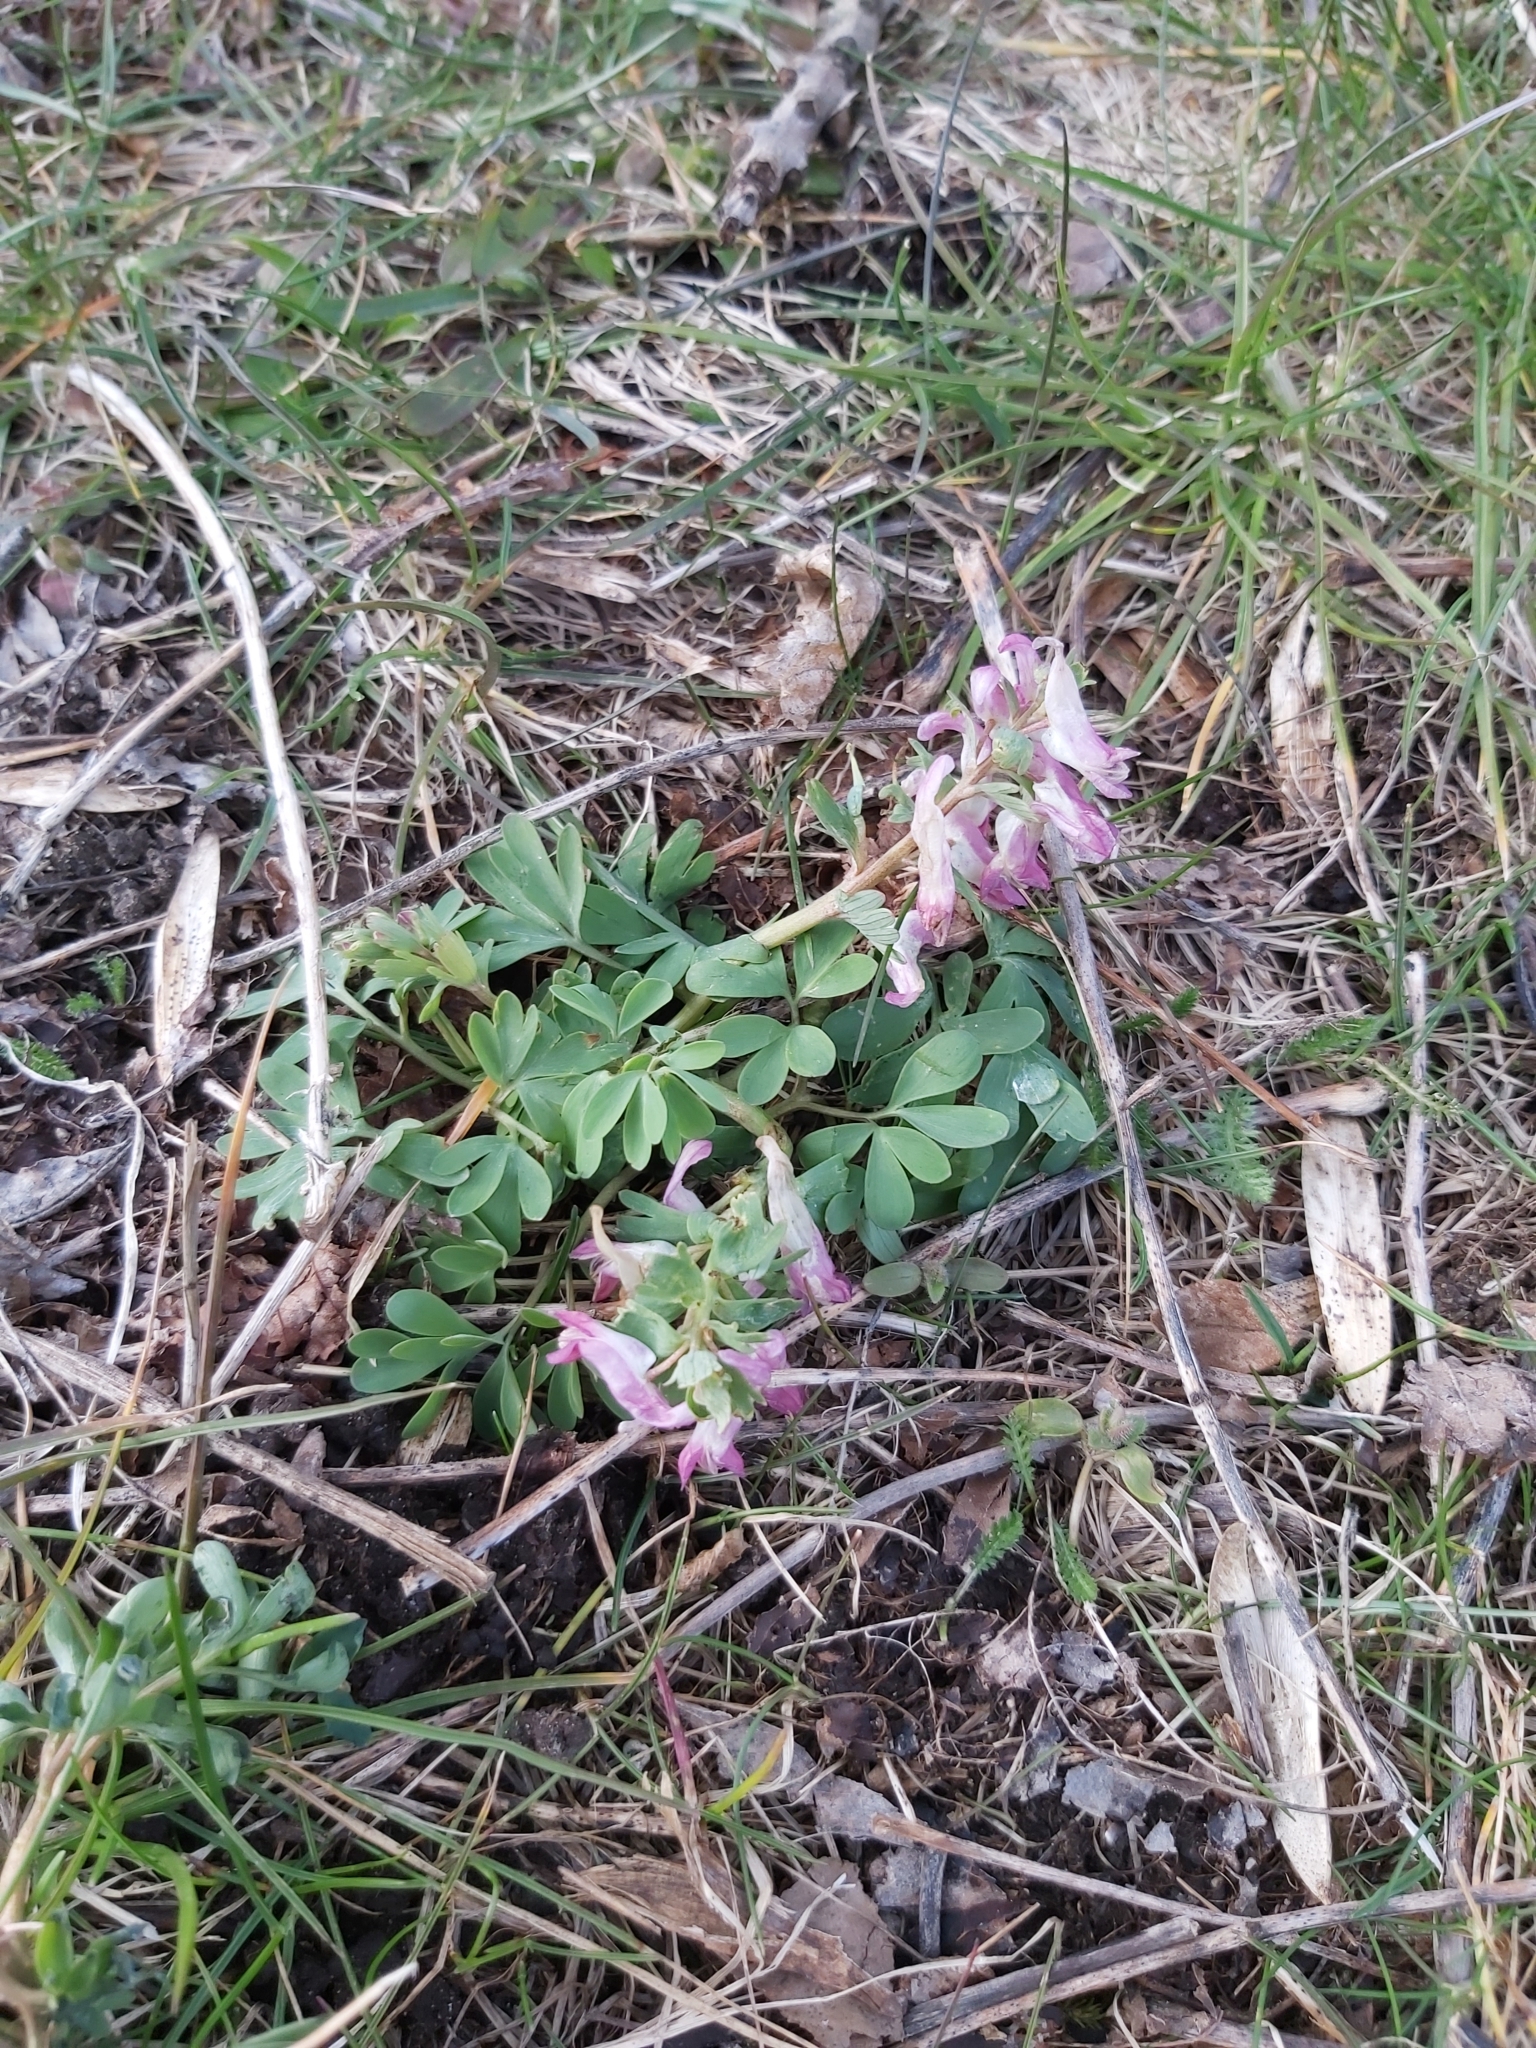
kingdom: Plantae
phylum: Tracheophyta
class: Magnoliopsida
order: Ranunculales
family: Papaveraceae
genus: Corydalis
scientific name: Corydalis solida
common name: Bird-in-a-bush
